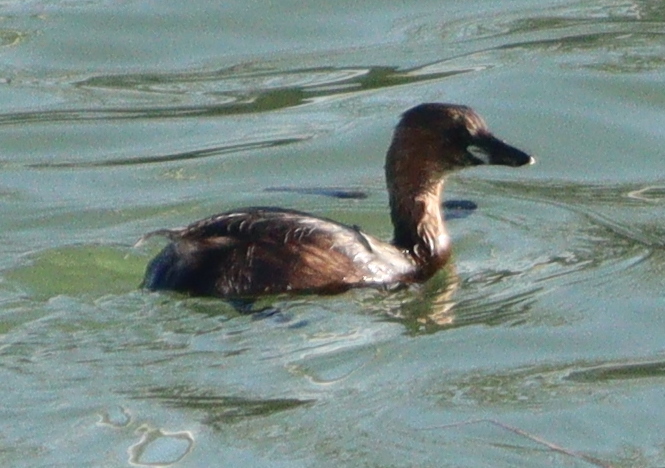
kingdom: Animalia
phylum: Chordata
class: Aves
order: Podicipediformes
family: Podicipedidae
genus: Tachybaptus
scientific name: Tachybaptus ruficollis
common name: Little grebe
